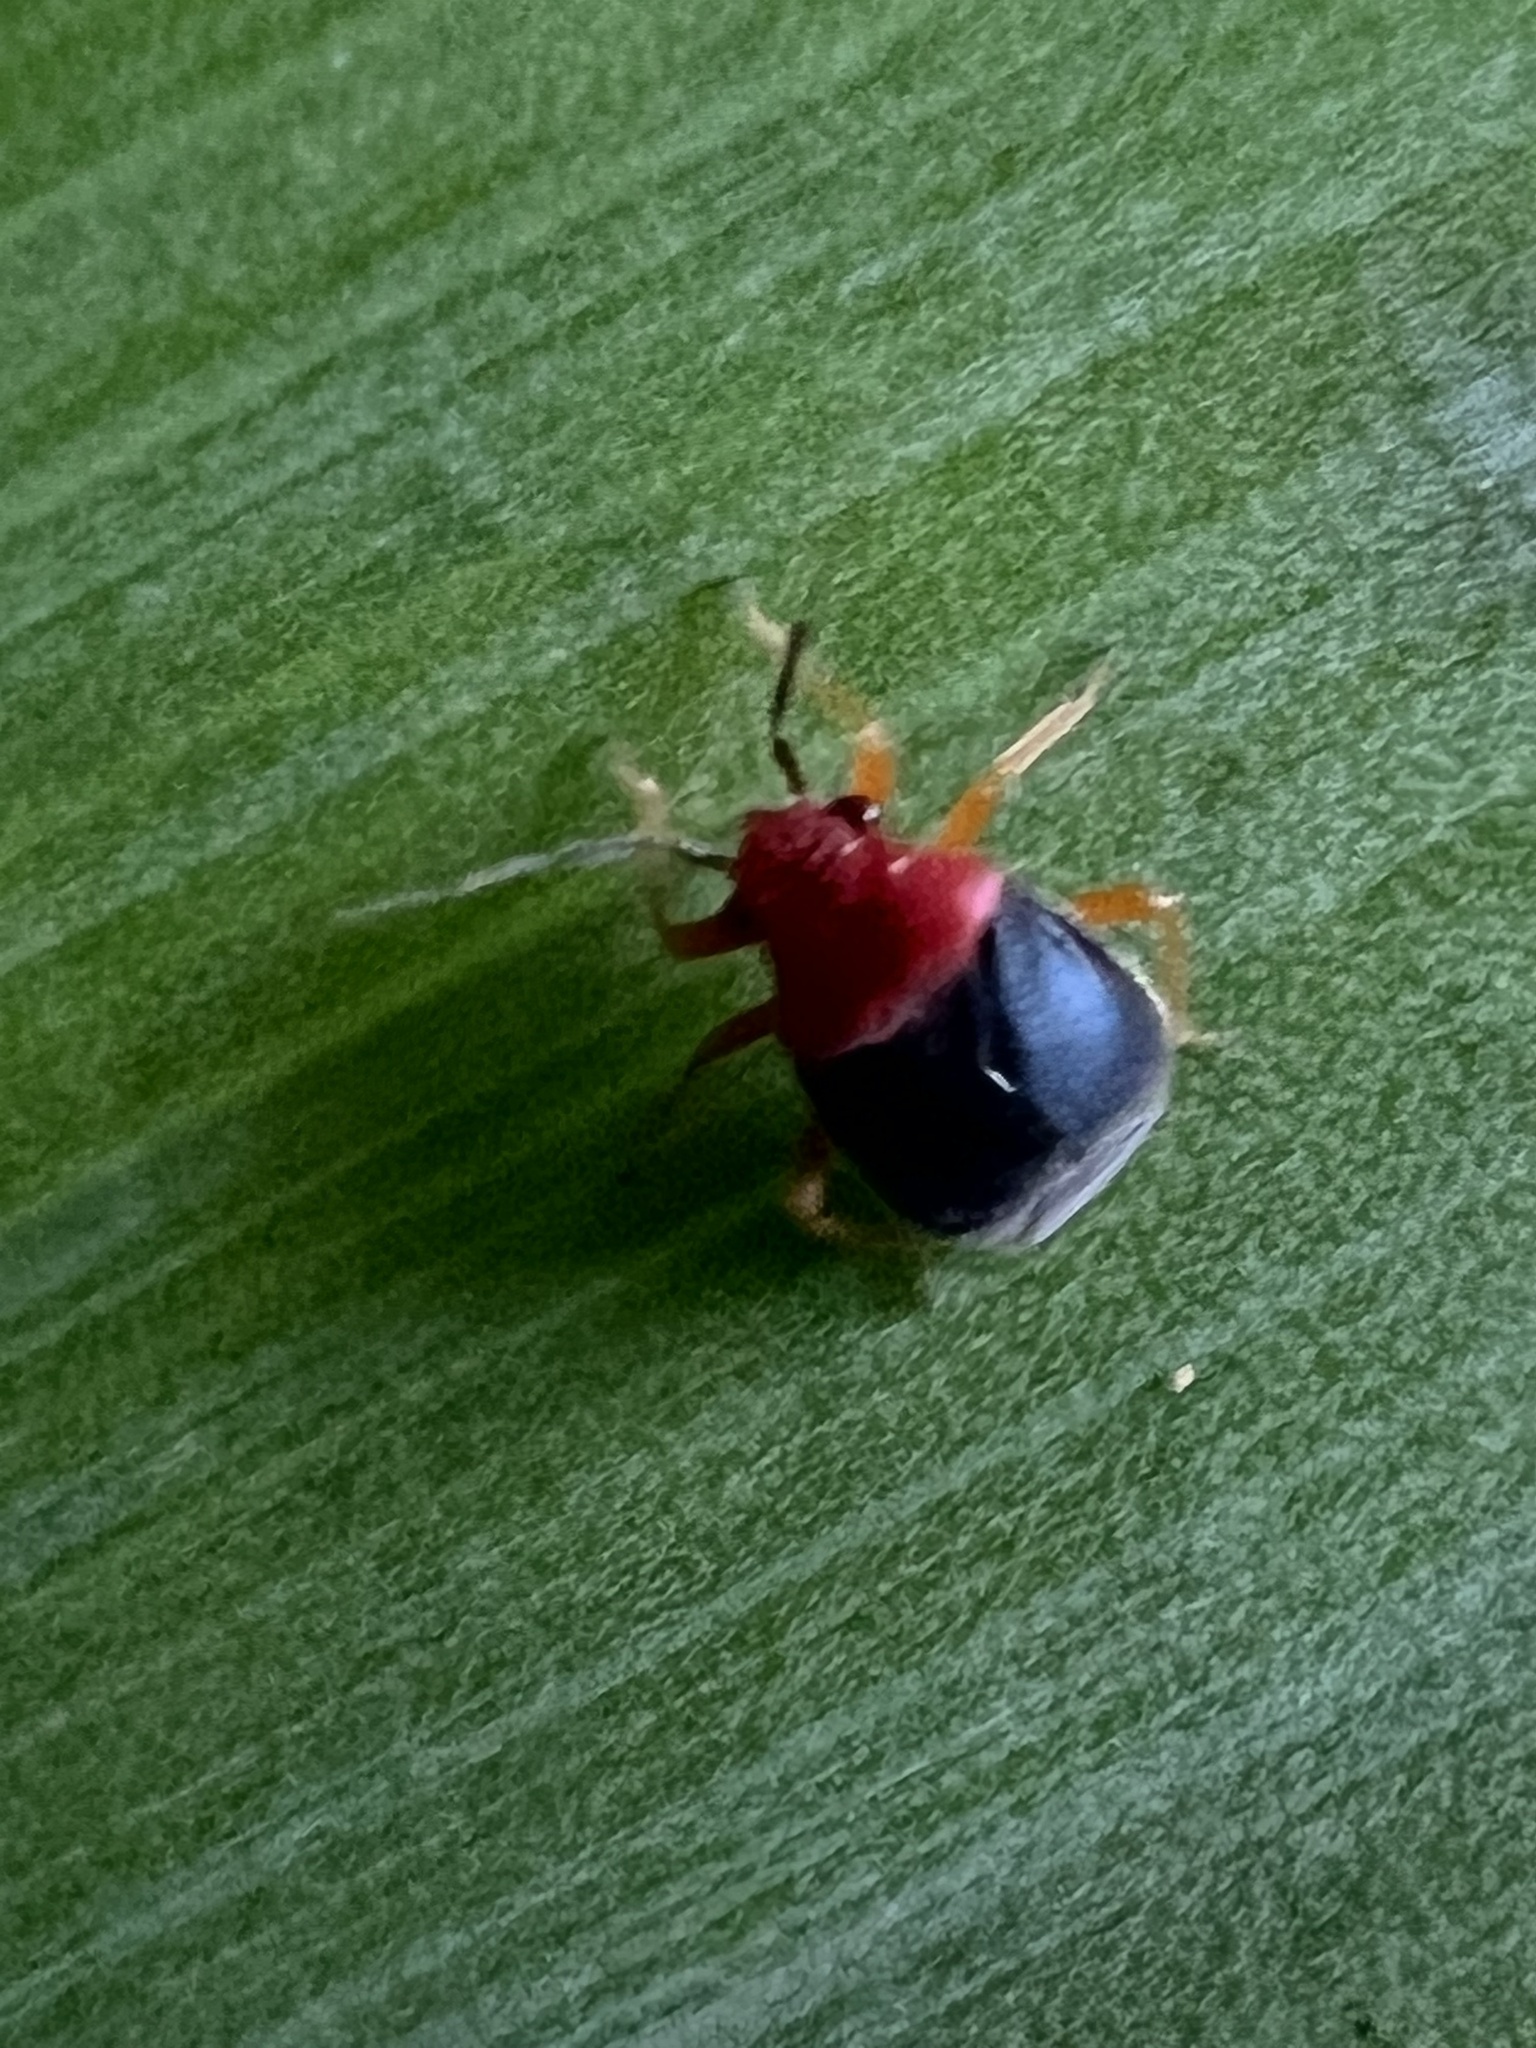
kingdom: Animalia
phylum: Arthropoda
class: Insecta
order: Hemiptera
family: Miridae
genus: Halticotoma
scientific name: Halticotoma valida
